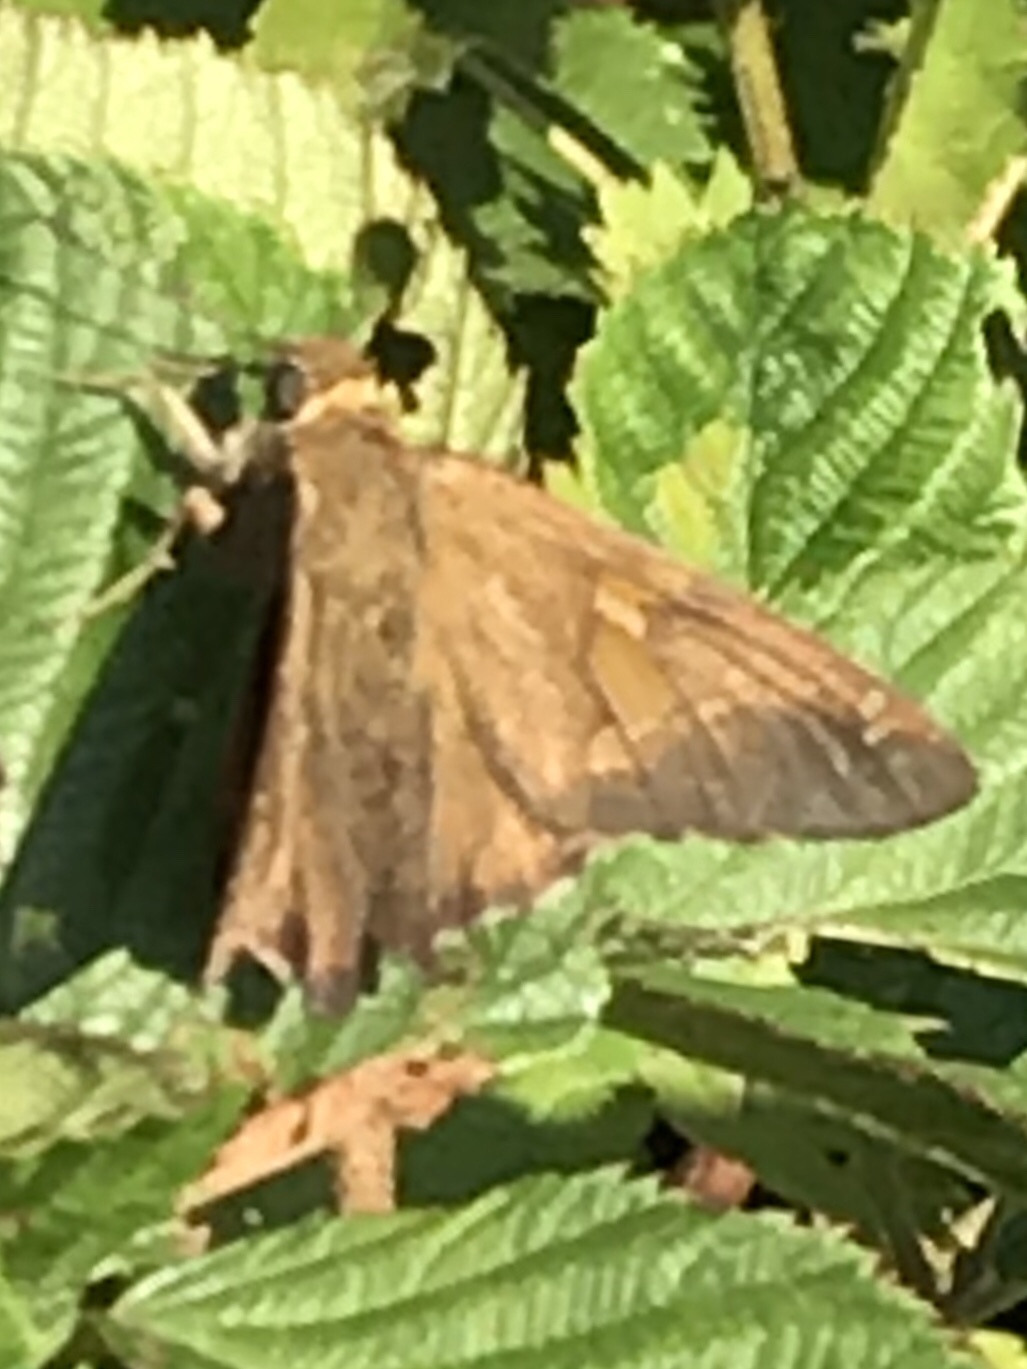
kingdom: Animalia
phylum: Arthropoda
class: Insecta
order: Lepidoptera
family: Hesperiidae
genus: Epargyreus
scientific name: Epargyreus clarus
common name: Silver-spotted skipper
